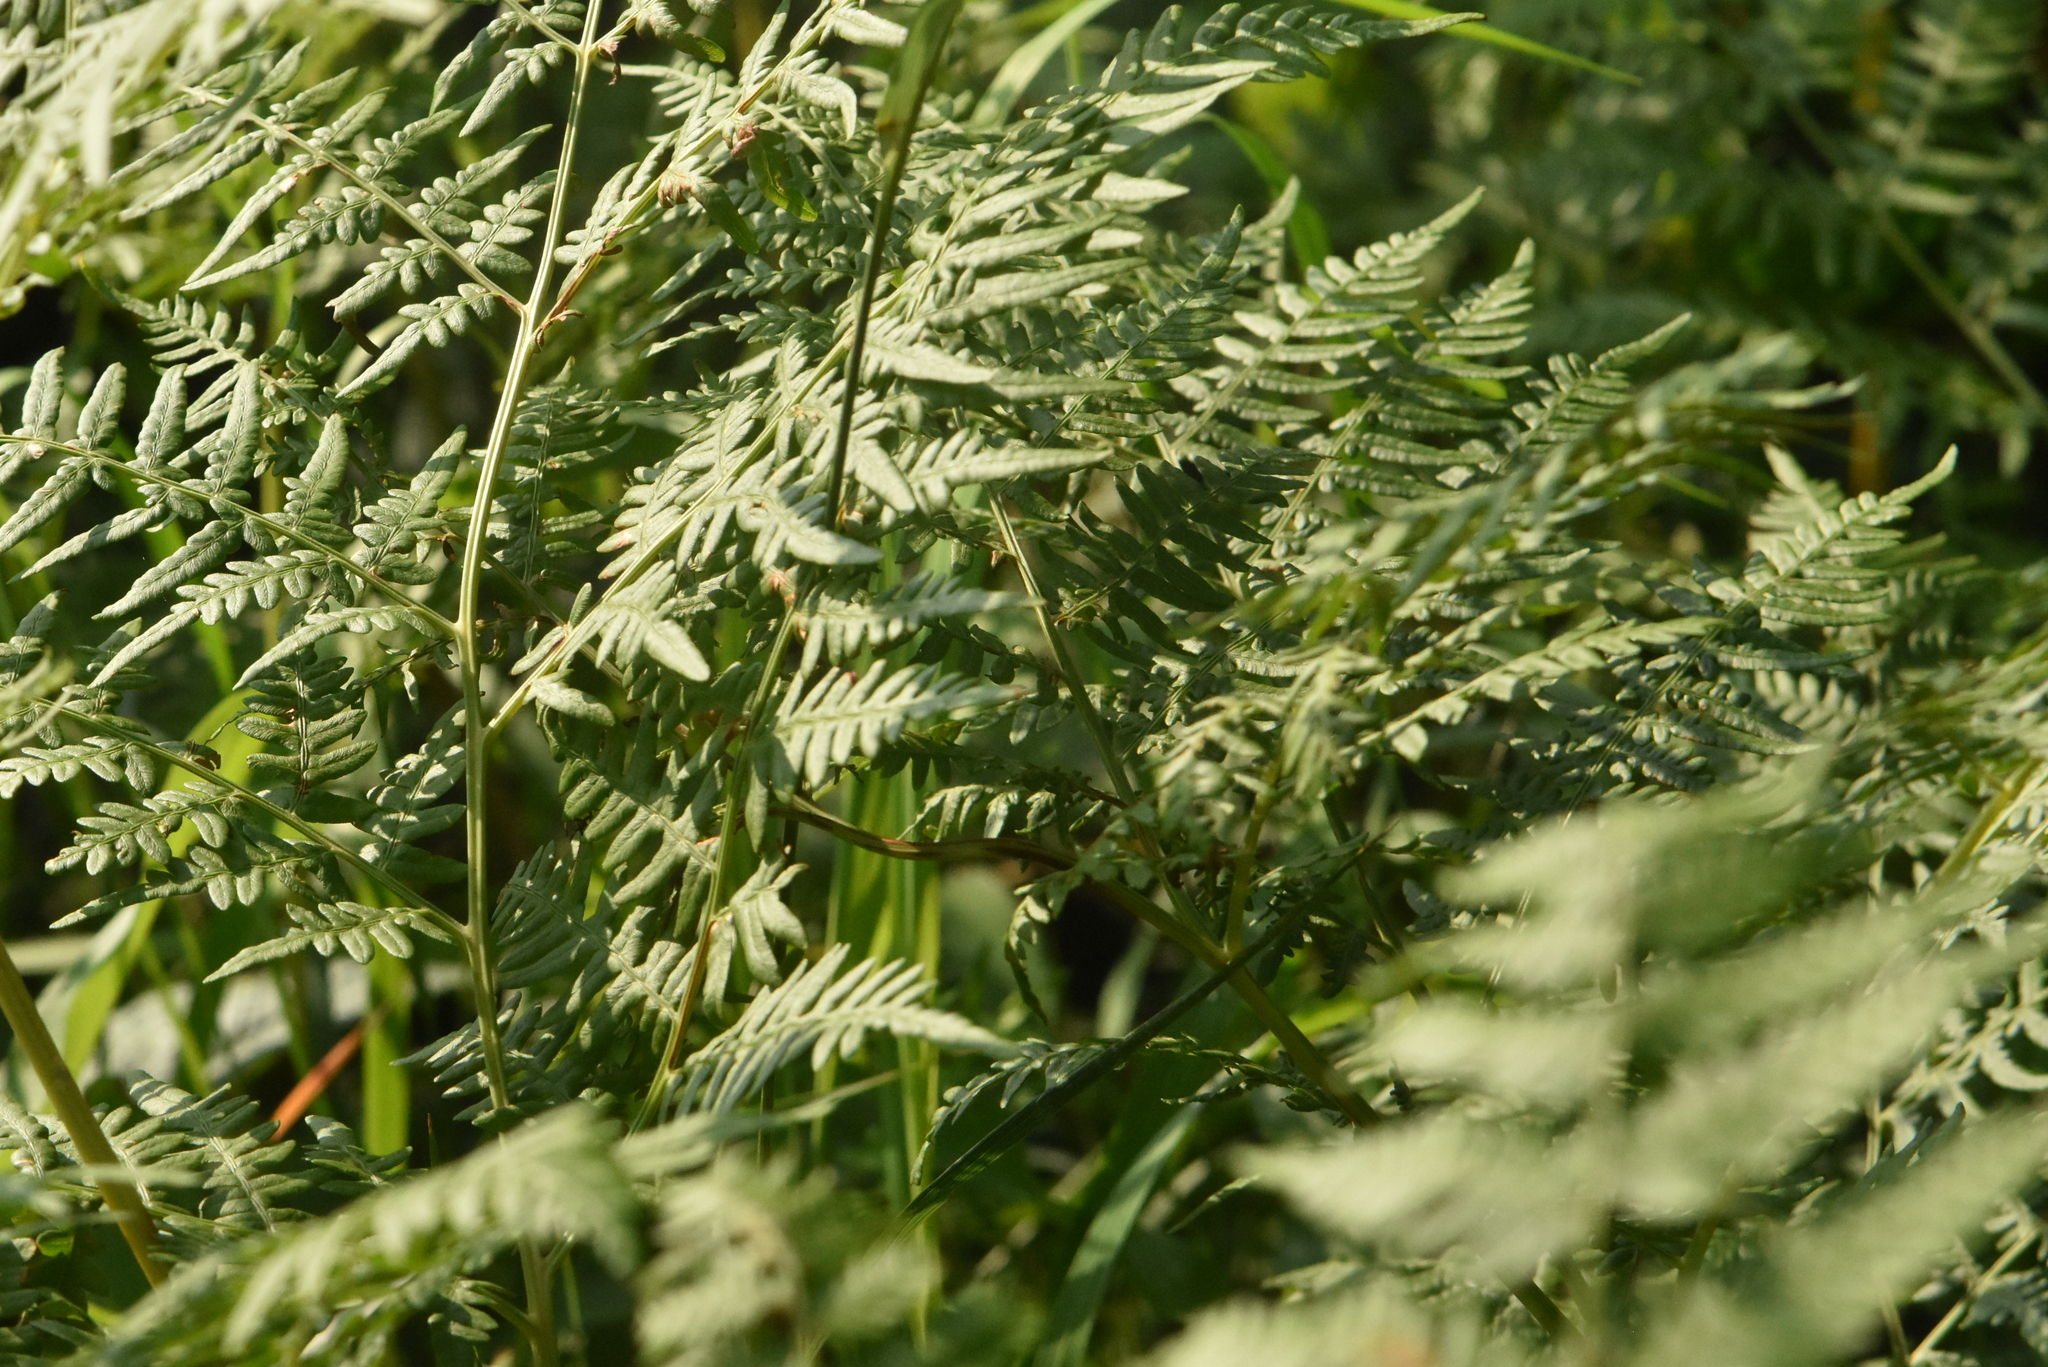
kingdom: Plantae
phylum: Tracheophyta
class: Polypodiopsida
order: Polypodiales
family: Dennstaedtiaceae
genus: Pteridium
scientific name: Pteridium aquilinum
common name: Bracken
